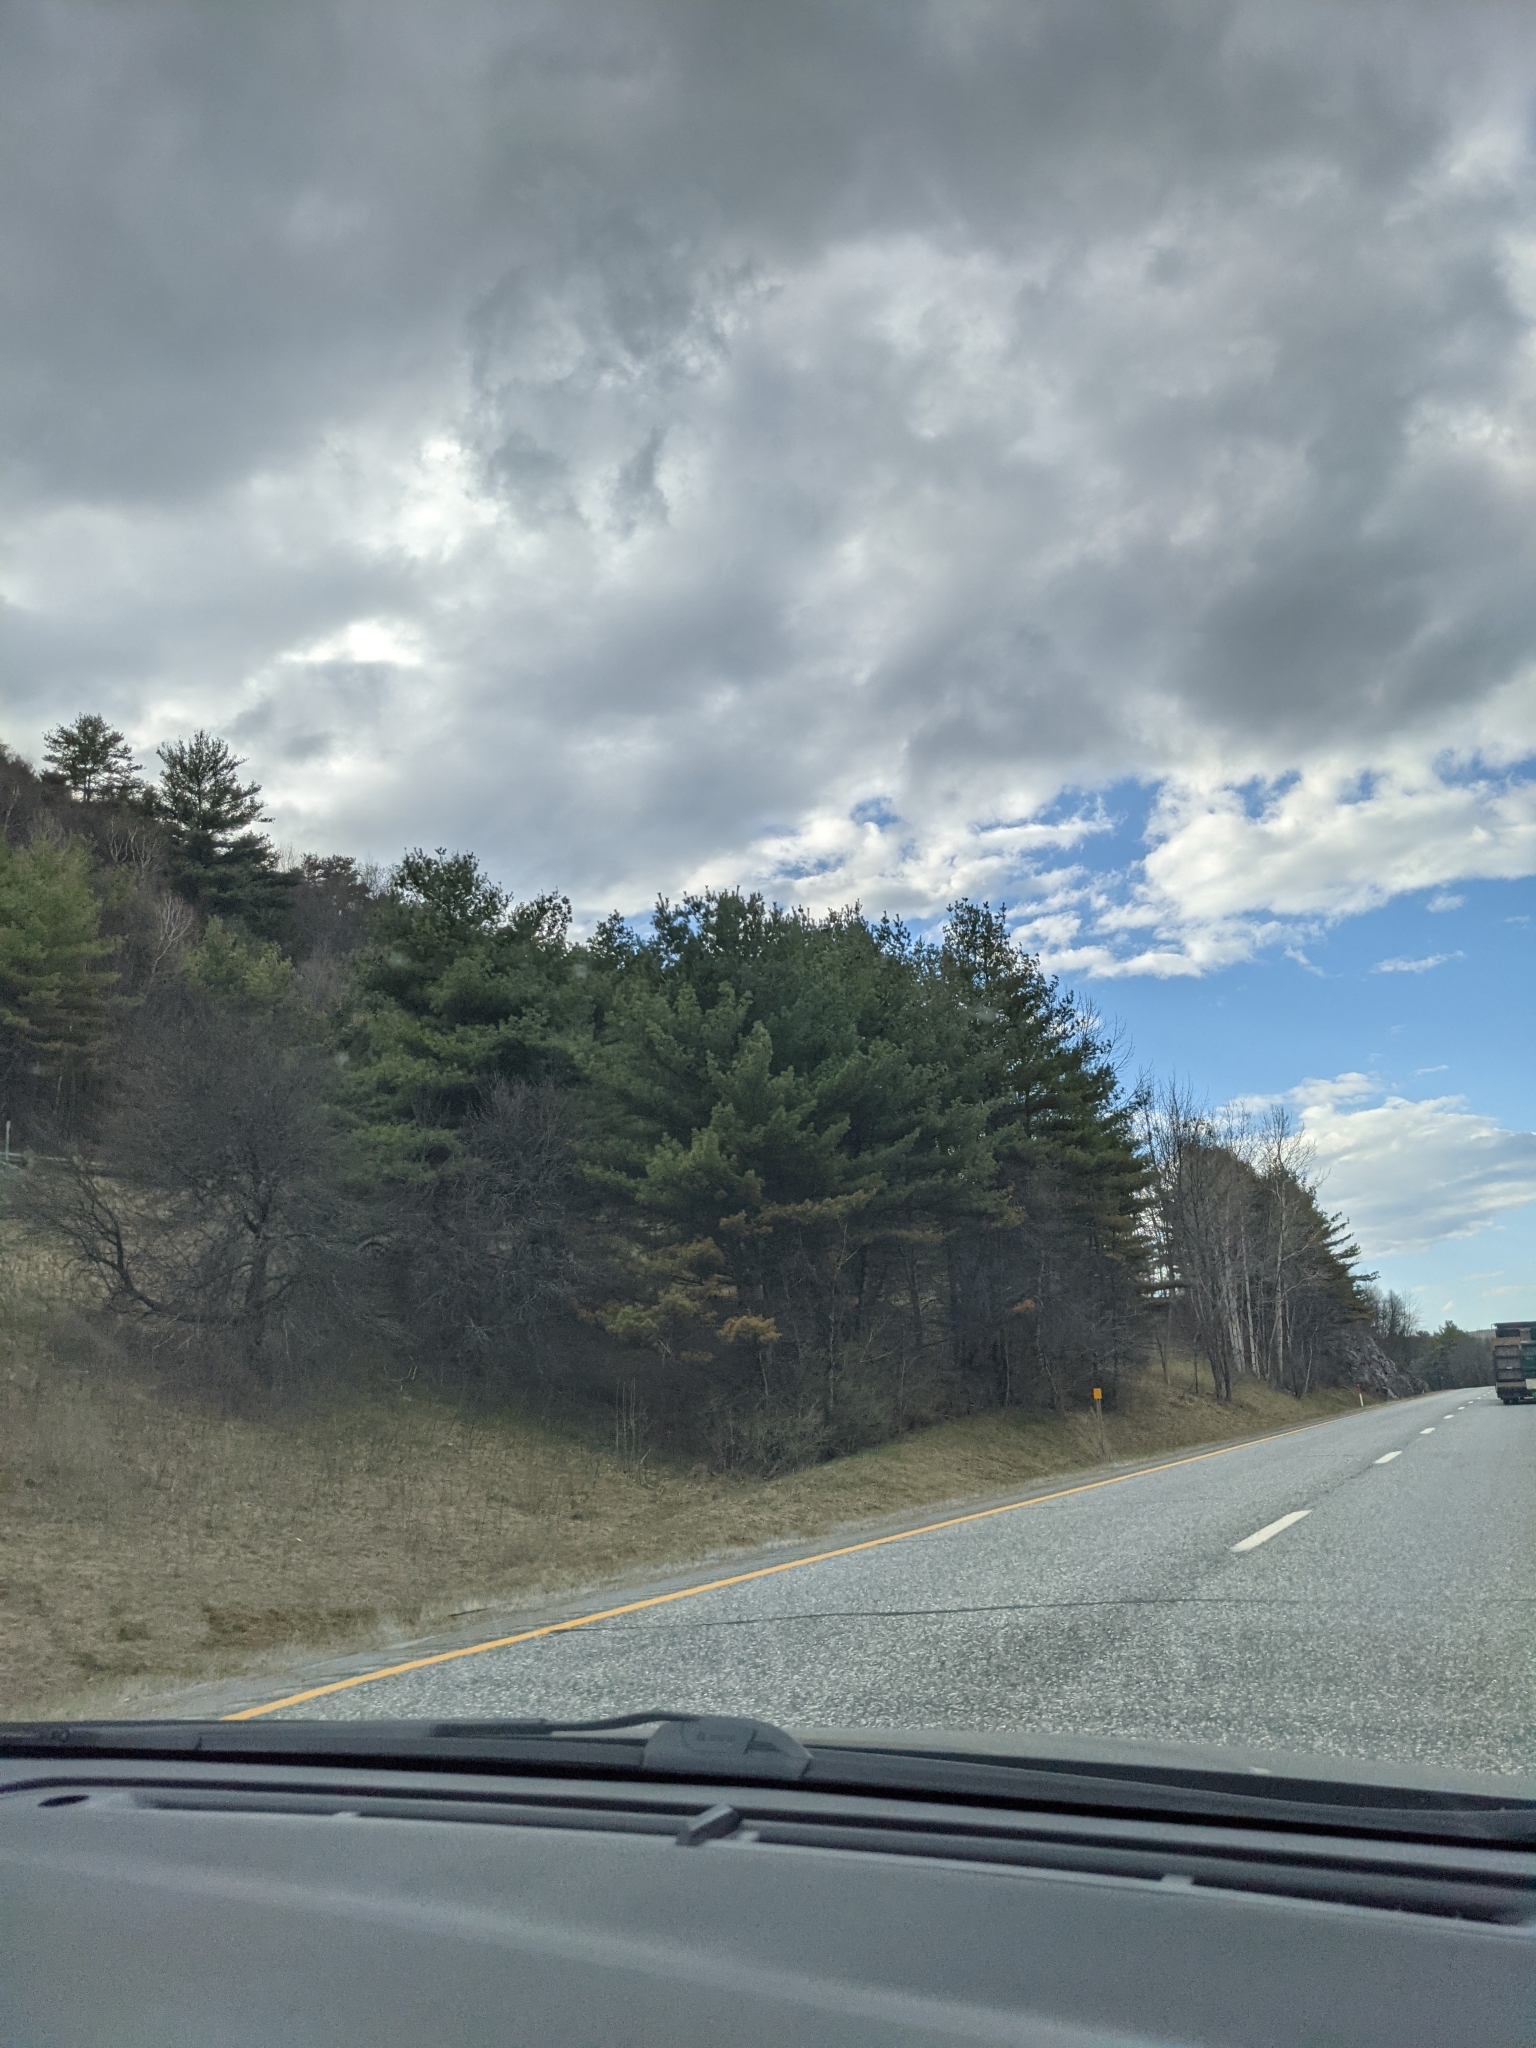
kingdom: Plantae
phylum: Tracheophyta
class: Pinopsida
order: Pinales
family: Pinaceae
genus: Pinus
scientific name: Pinus strobus
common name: Weymouth pine
